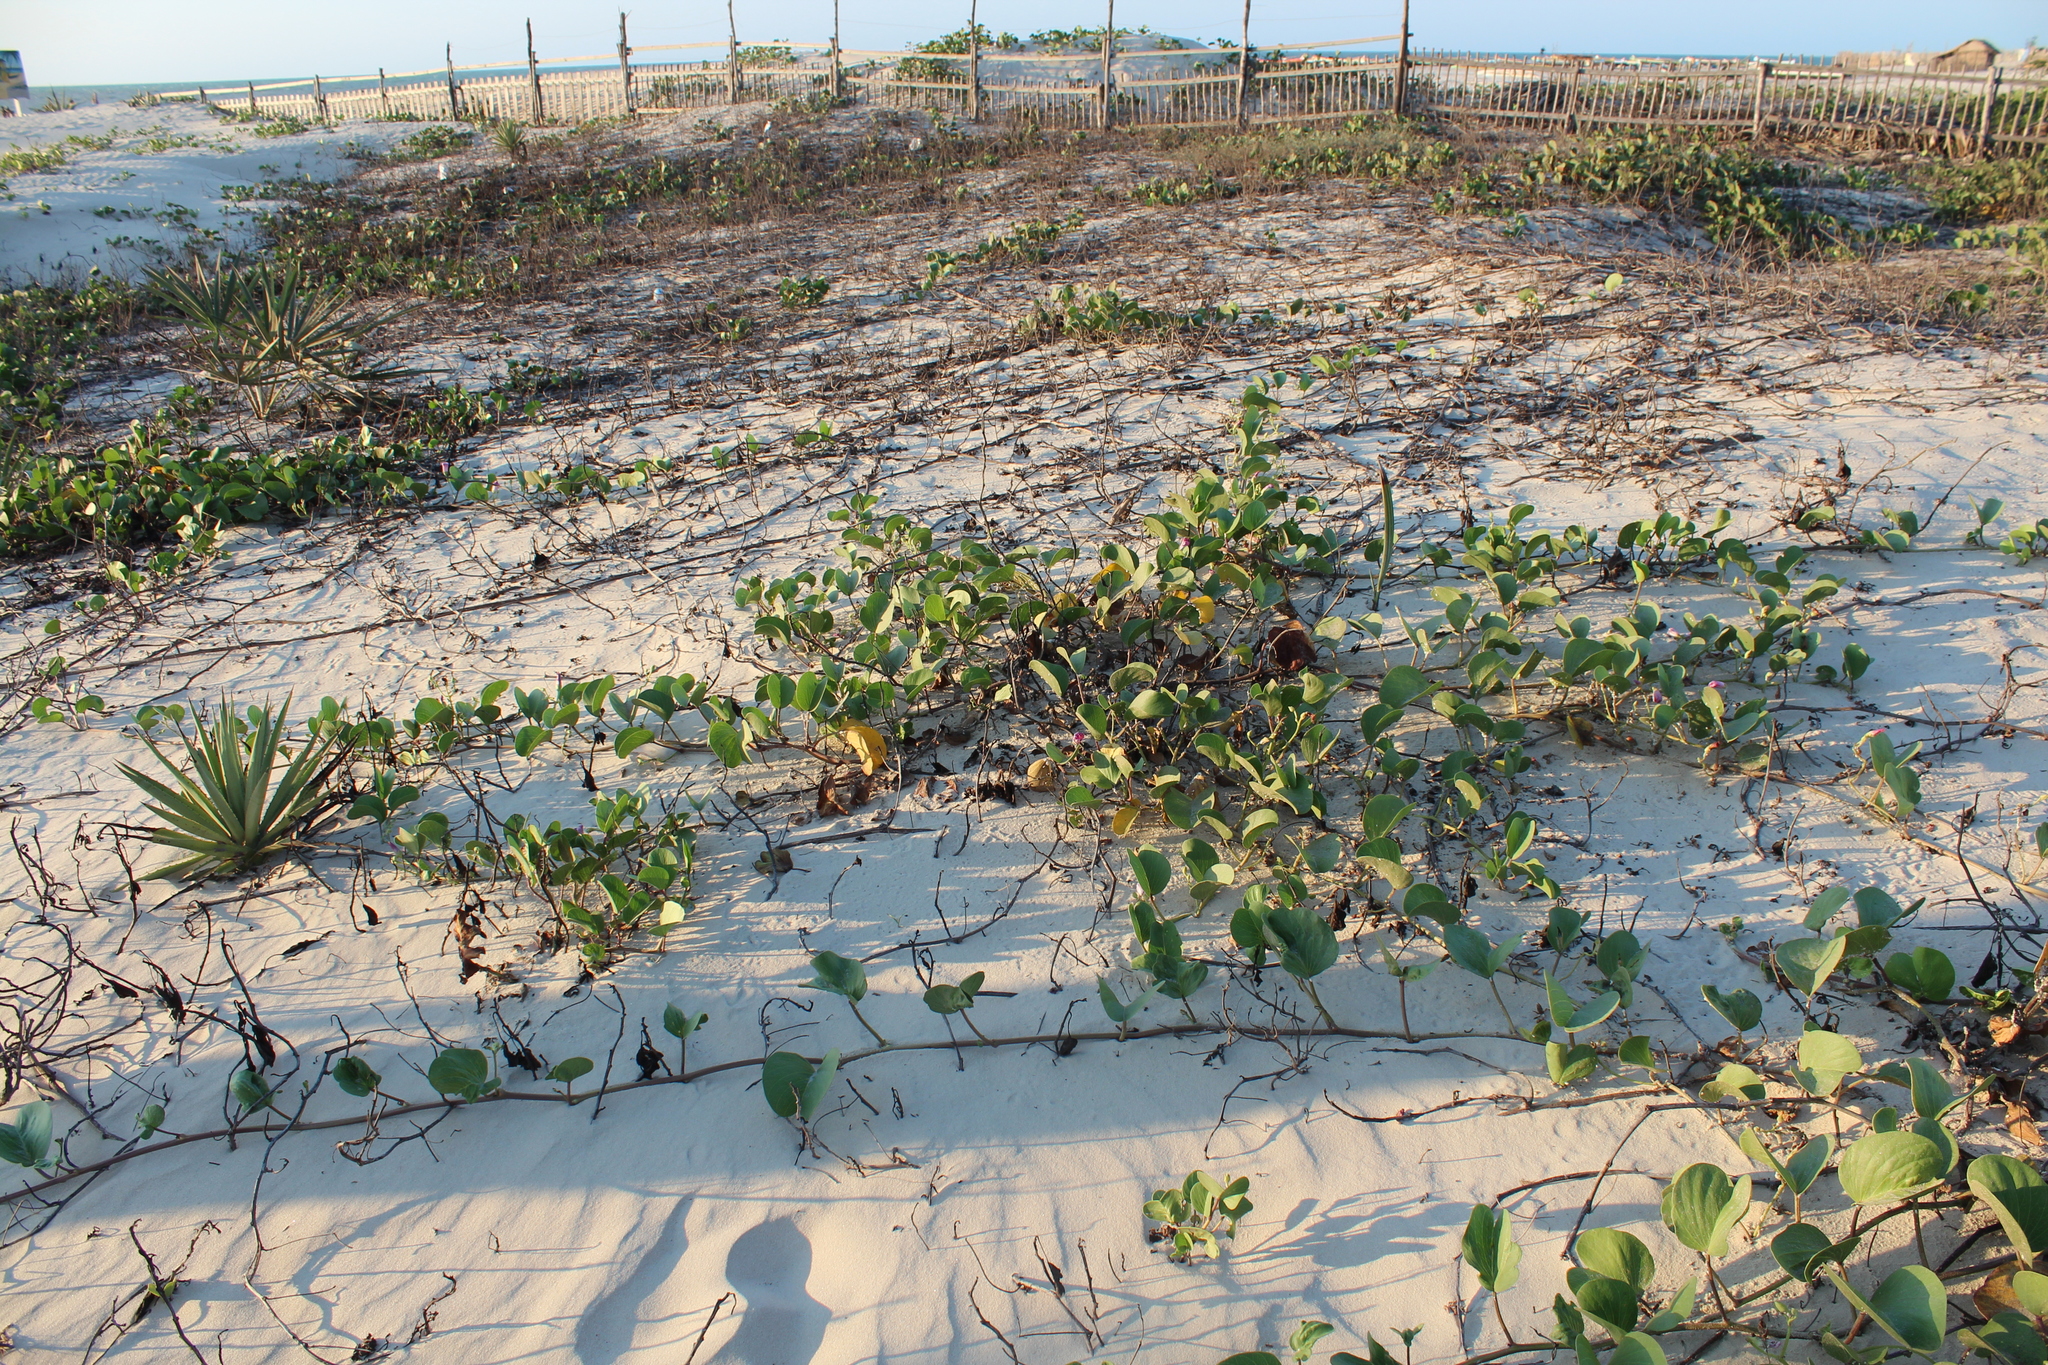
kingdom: Plantae
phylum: Tracheophyta
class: Magnoliopsida
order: Solanales
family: Convolvulaceae
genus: Ipomoea
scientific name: Ipomoea pes-caprae
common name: Beach morning glory
